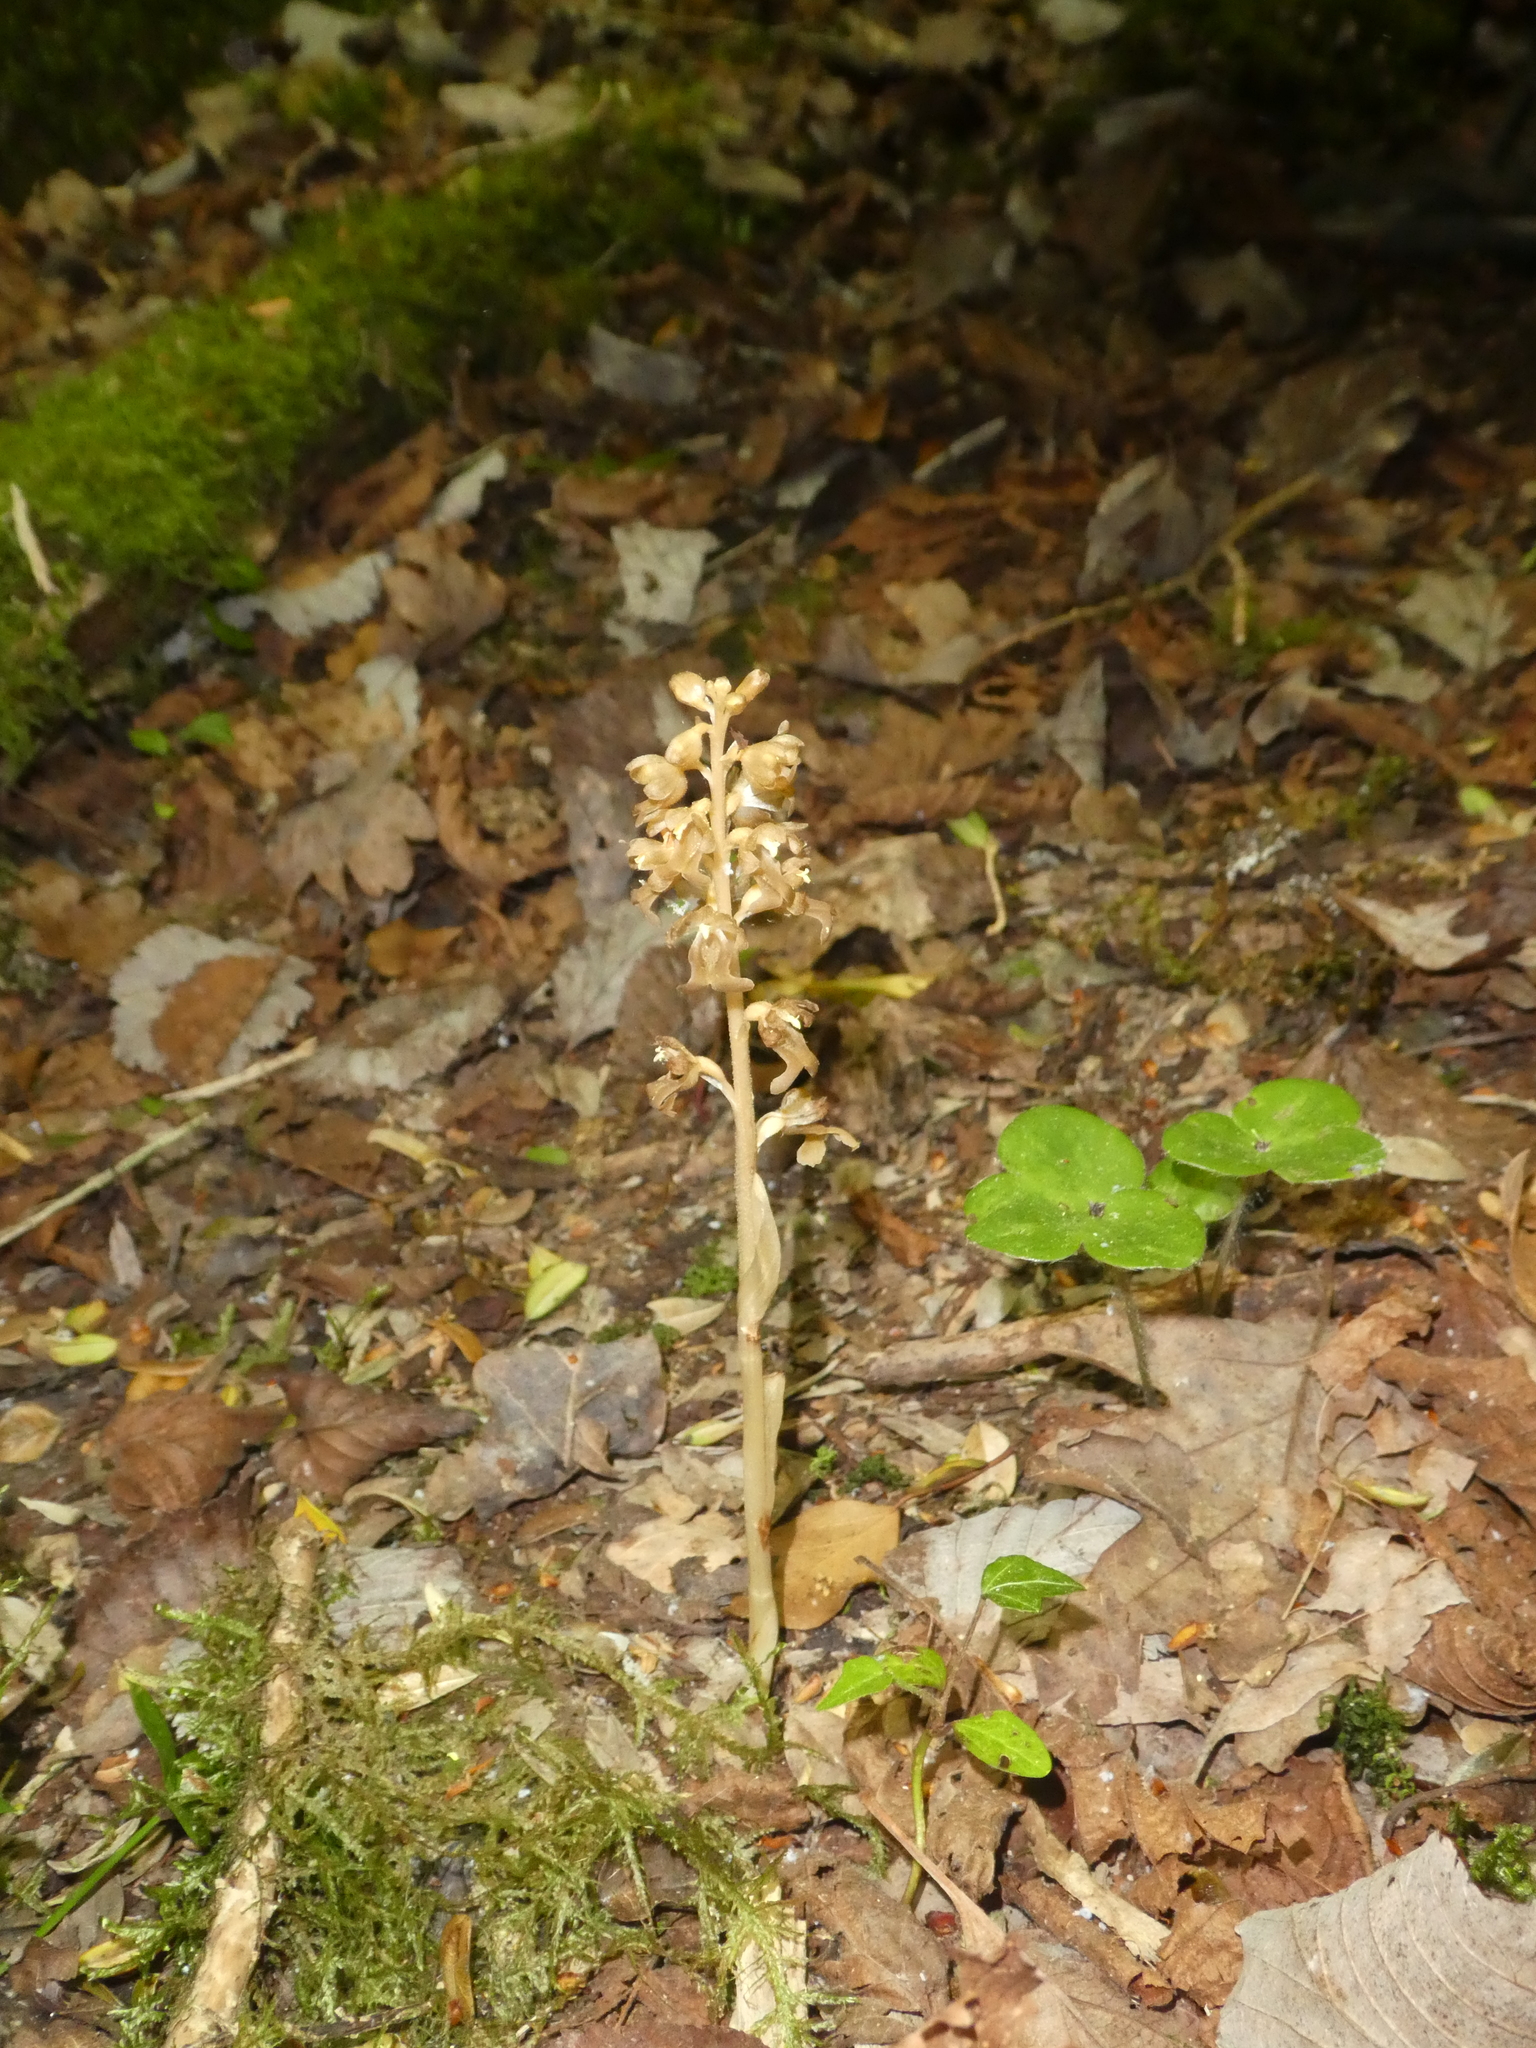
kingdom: Plantae
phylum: Tracheophyta
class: Liliopsida
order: Asparagales
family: Orchidaceae
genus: Neottia
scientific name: Neottia nidus-avis
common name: Bird's-nest orchid
